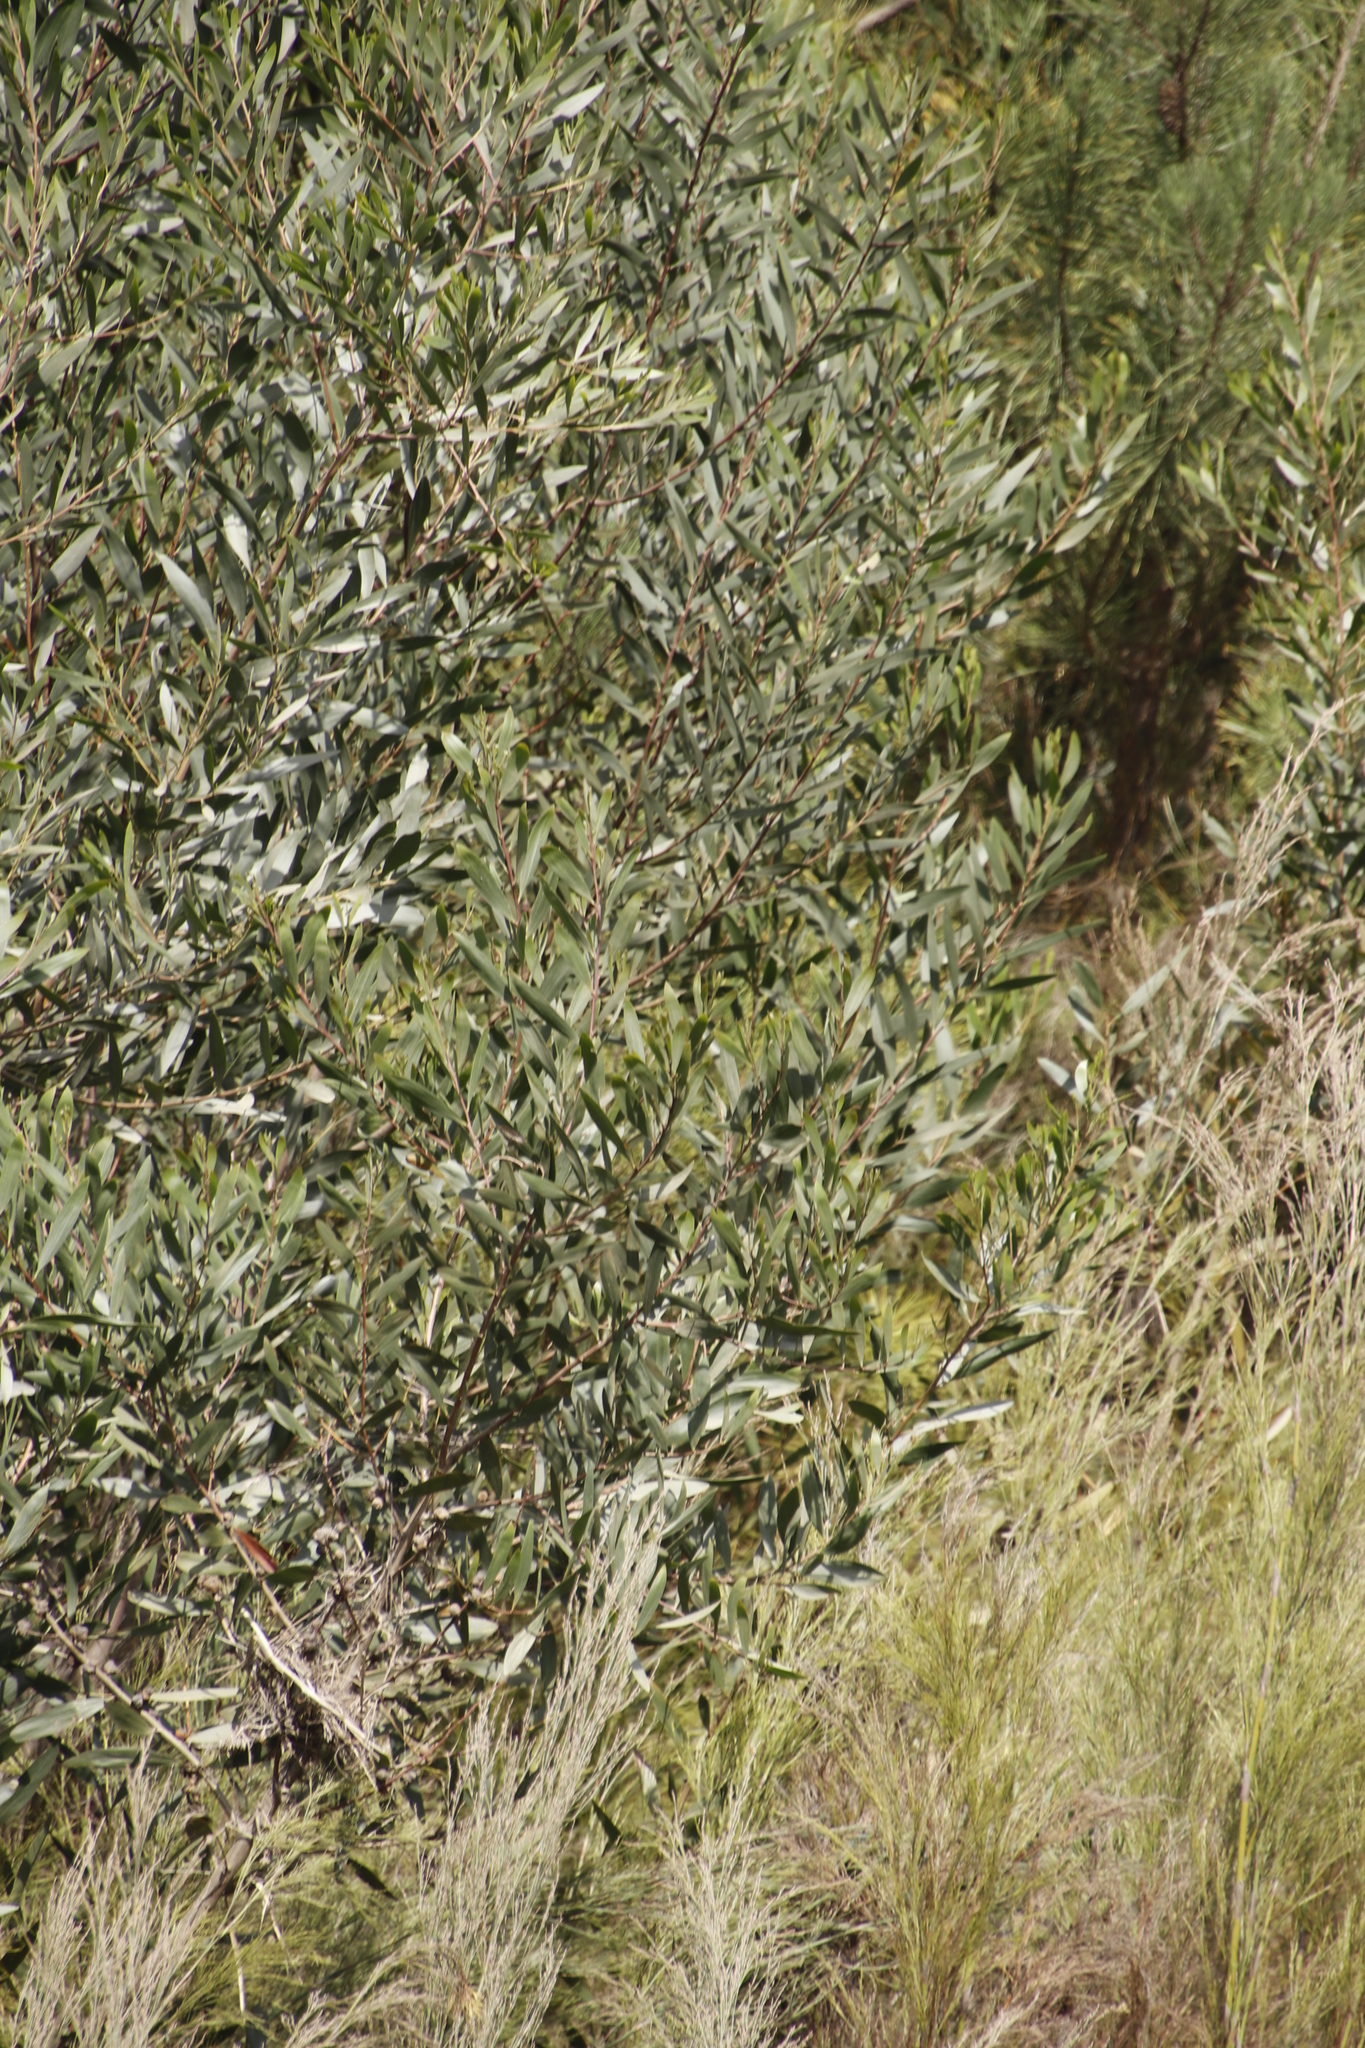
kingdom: Plantae
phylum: Tracheophyta
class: Magnoliopsida
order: Fabales
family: Fabaceae
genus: Acacia
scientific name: Acacia longifolia
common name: Sydney golden wattle
